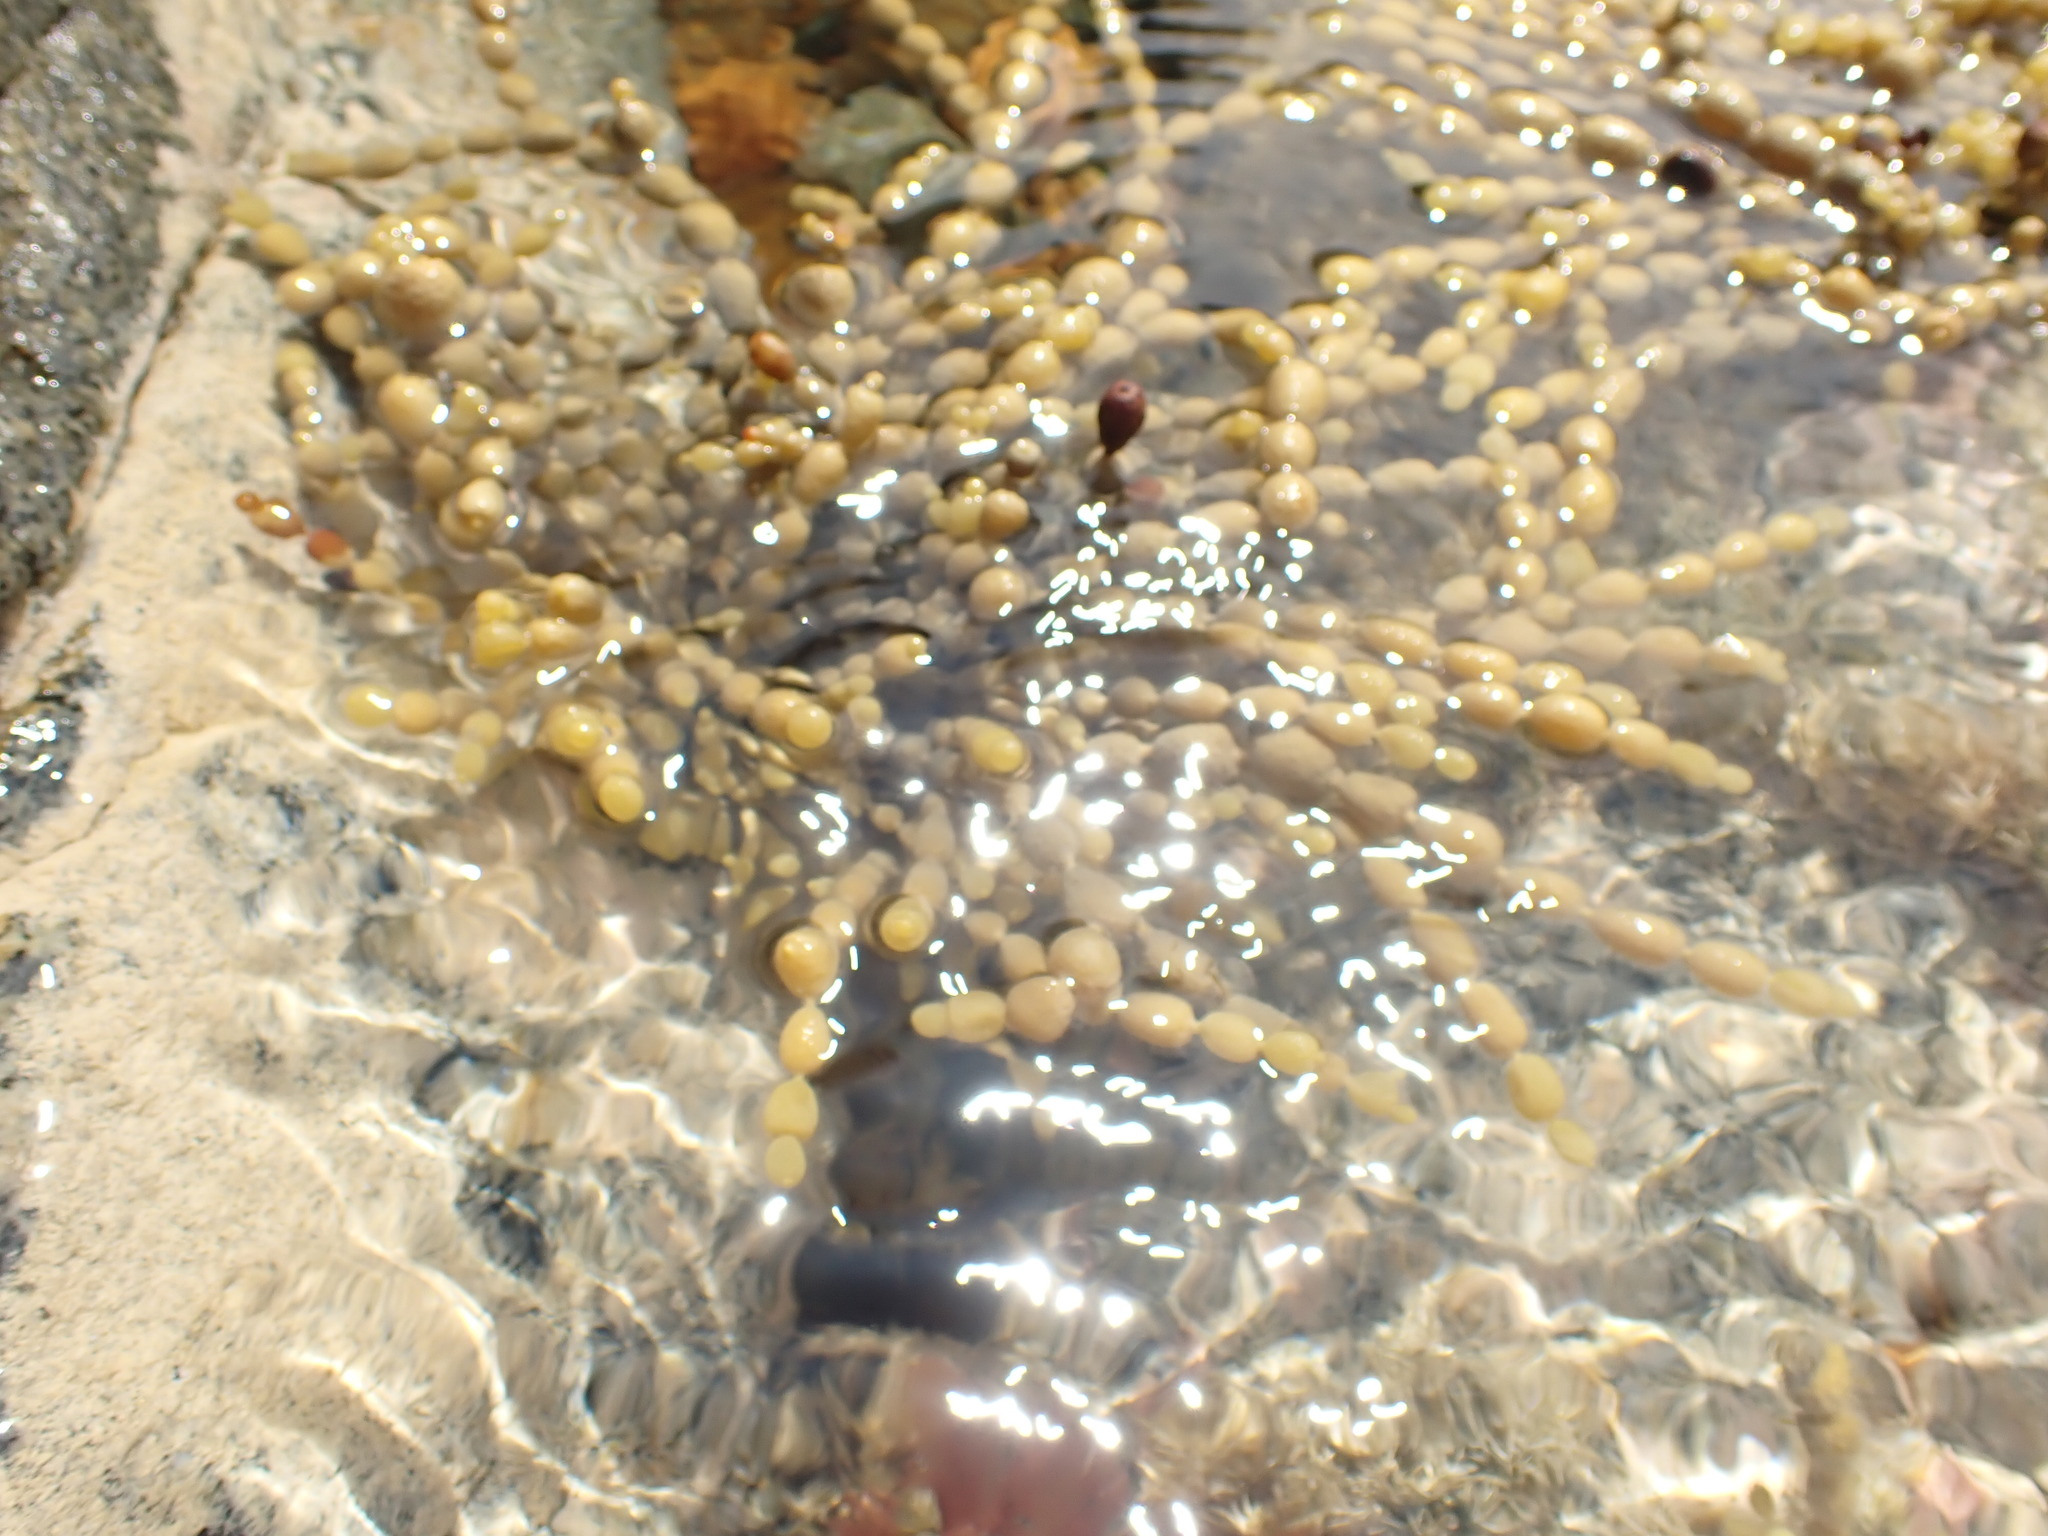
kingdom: Chromista
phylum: Ochrophyta
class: Phaeophyceae
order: Fucales
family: Hormosiraceae
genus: Hormosira
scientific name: Hormosira banksii
